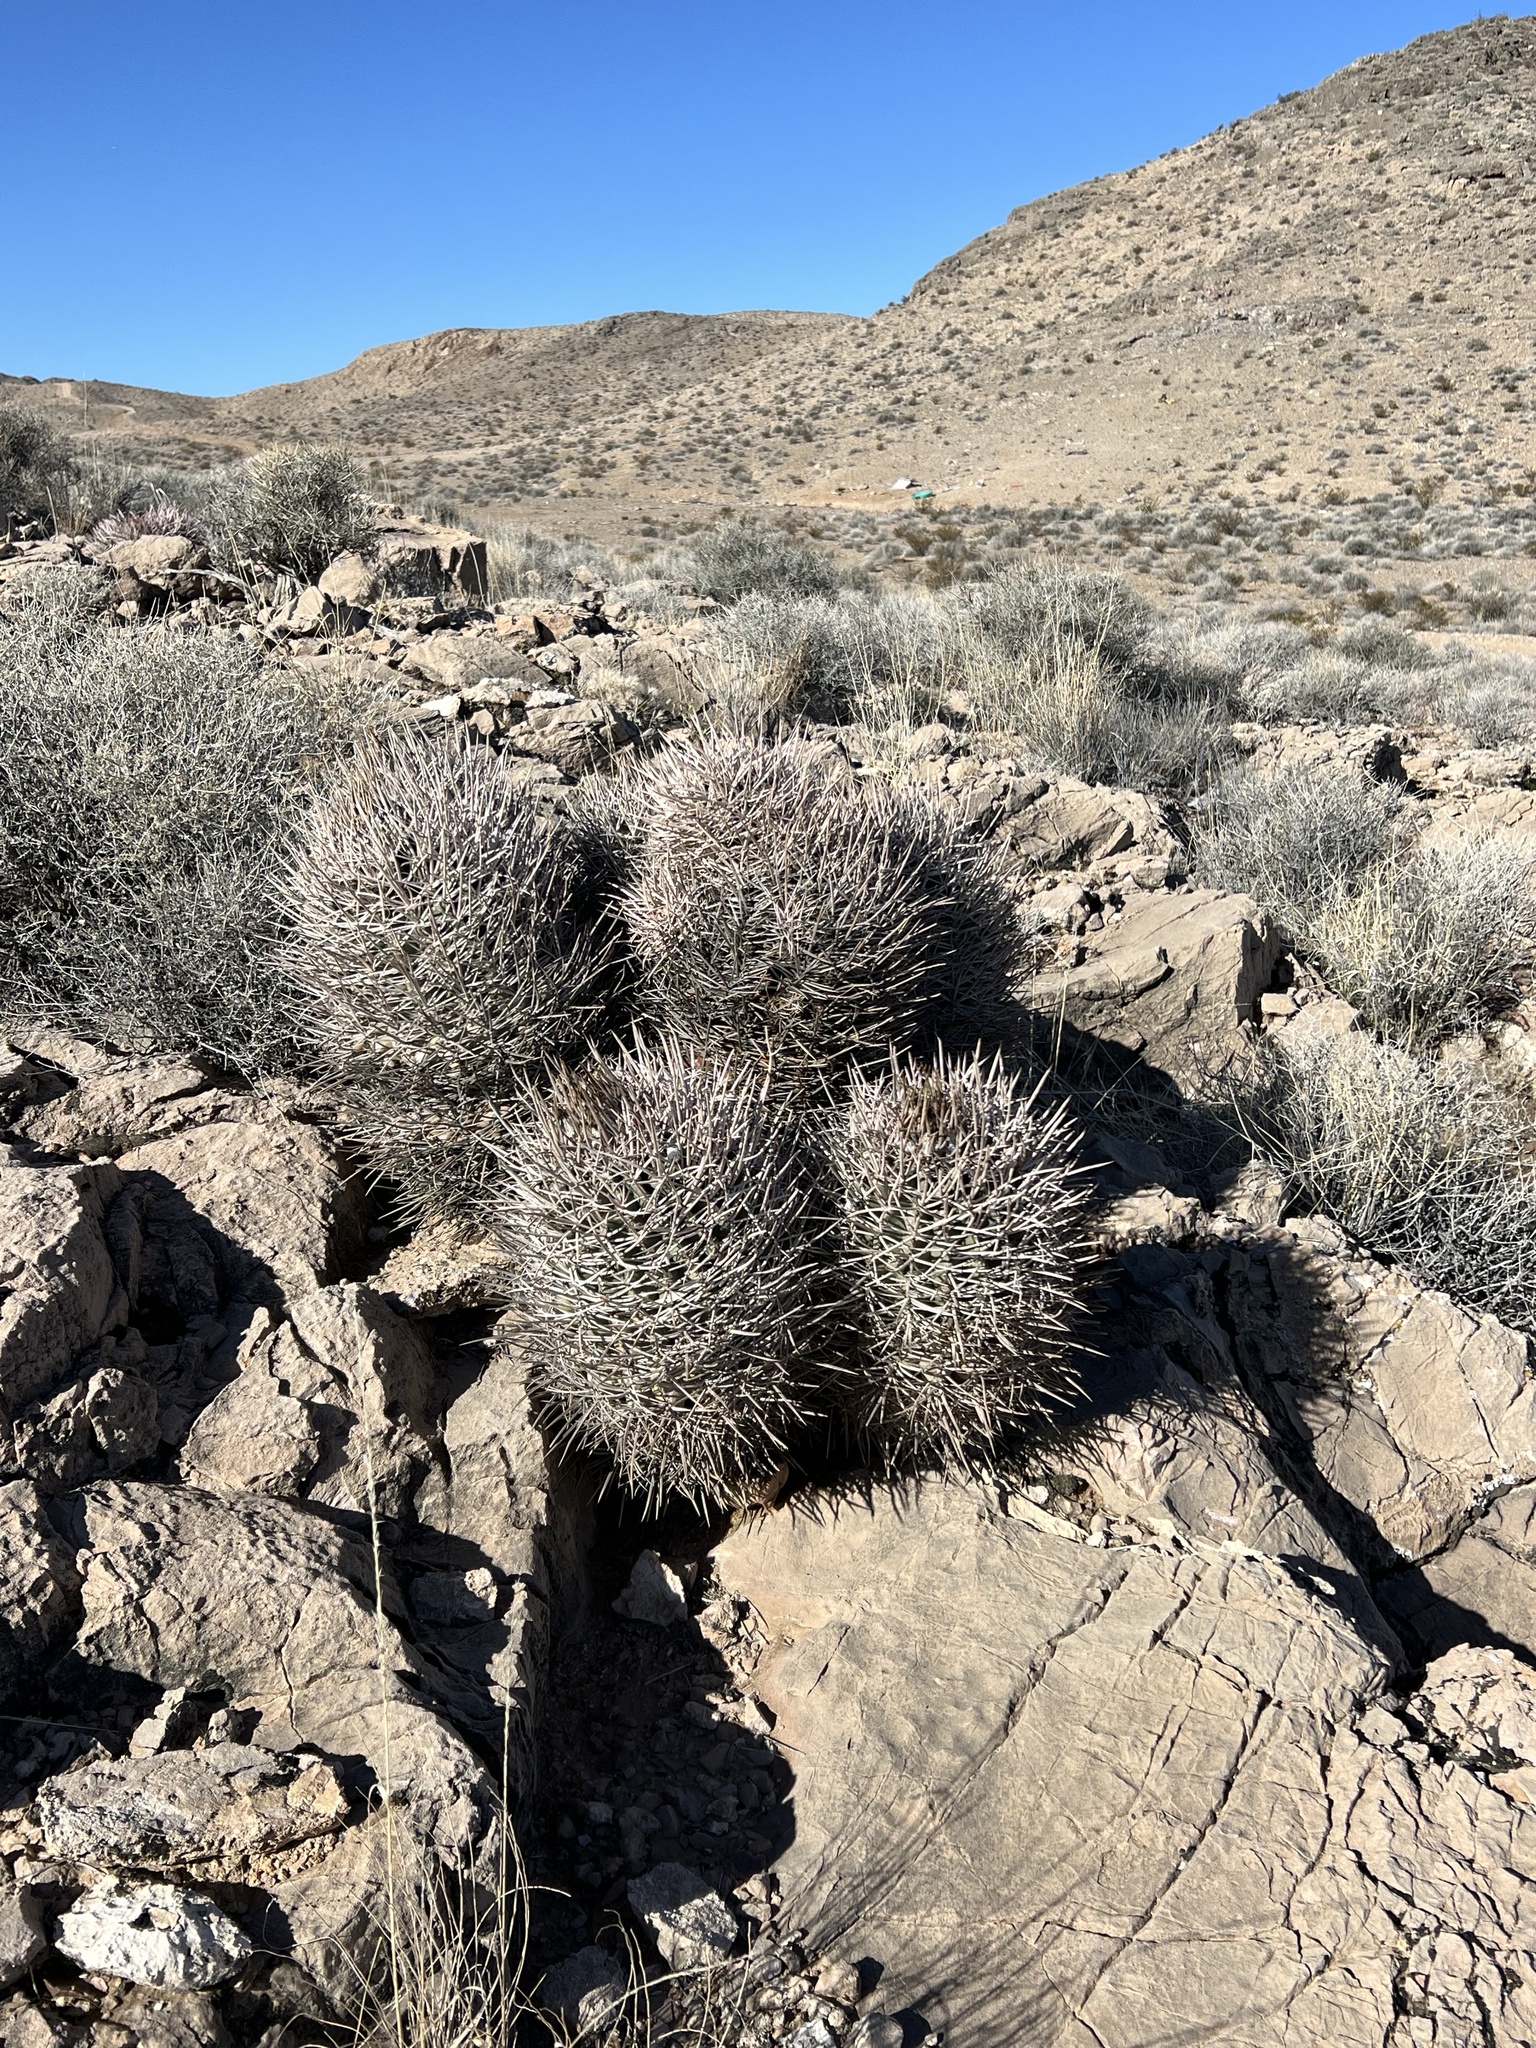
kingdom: Plantae
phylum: Tracheophyta
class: Magnoliopsida
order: Caryophyllales
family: Cactaceae
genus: Echinocactus
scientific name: Echinocactus polycephalus
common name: Cottontop cactus
